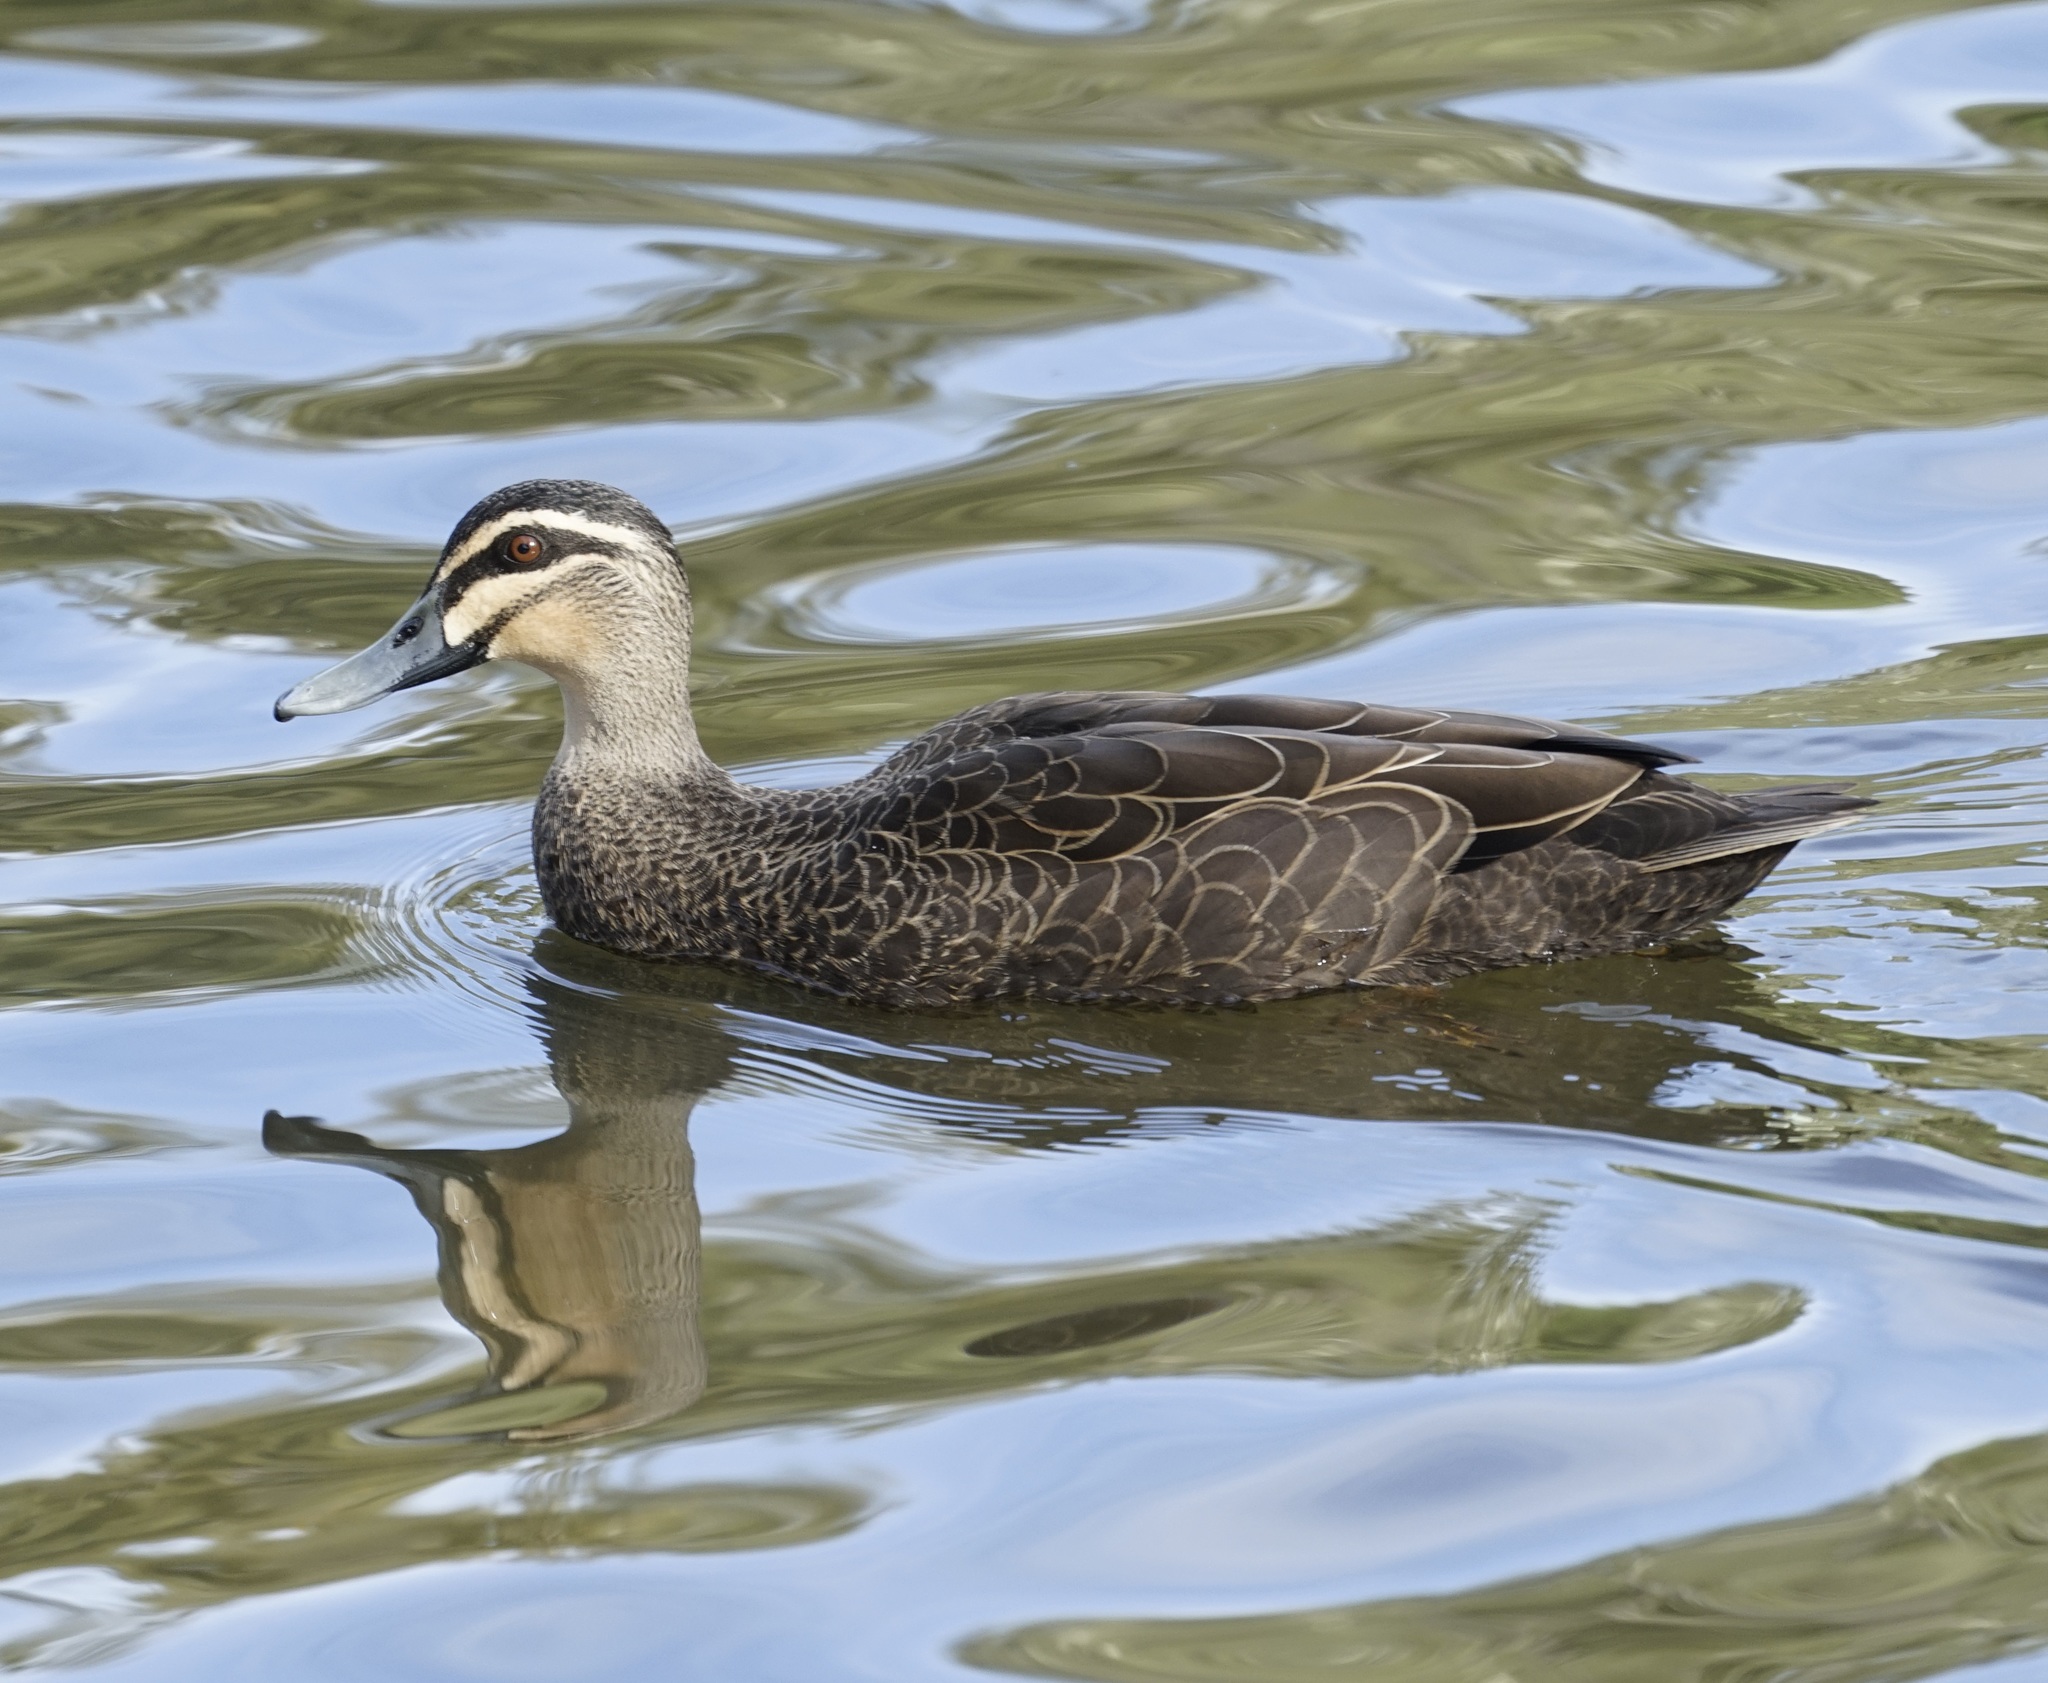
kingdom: Animalia
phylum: Chordata
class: Aves
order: Anseriformes
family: Anatidae
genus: Anas
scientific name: Anas superciliosa
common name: Pacific black duck
